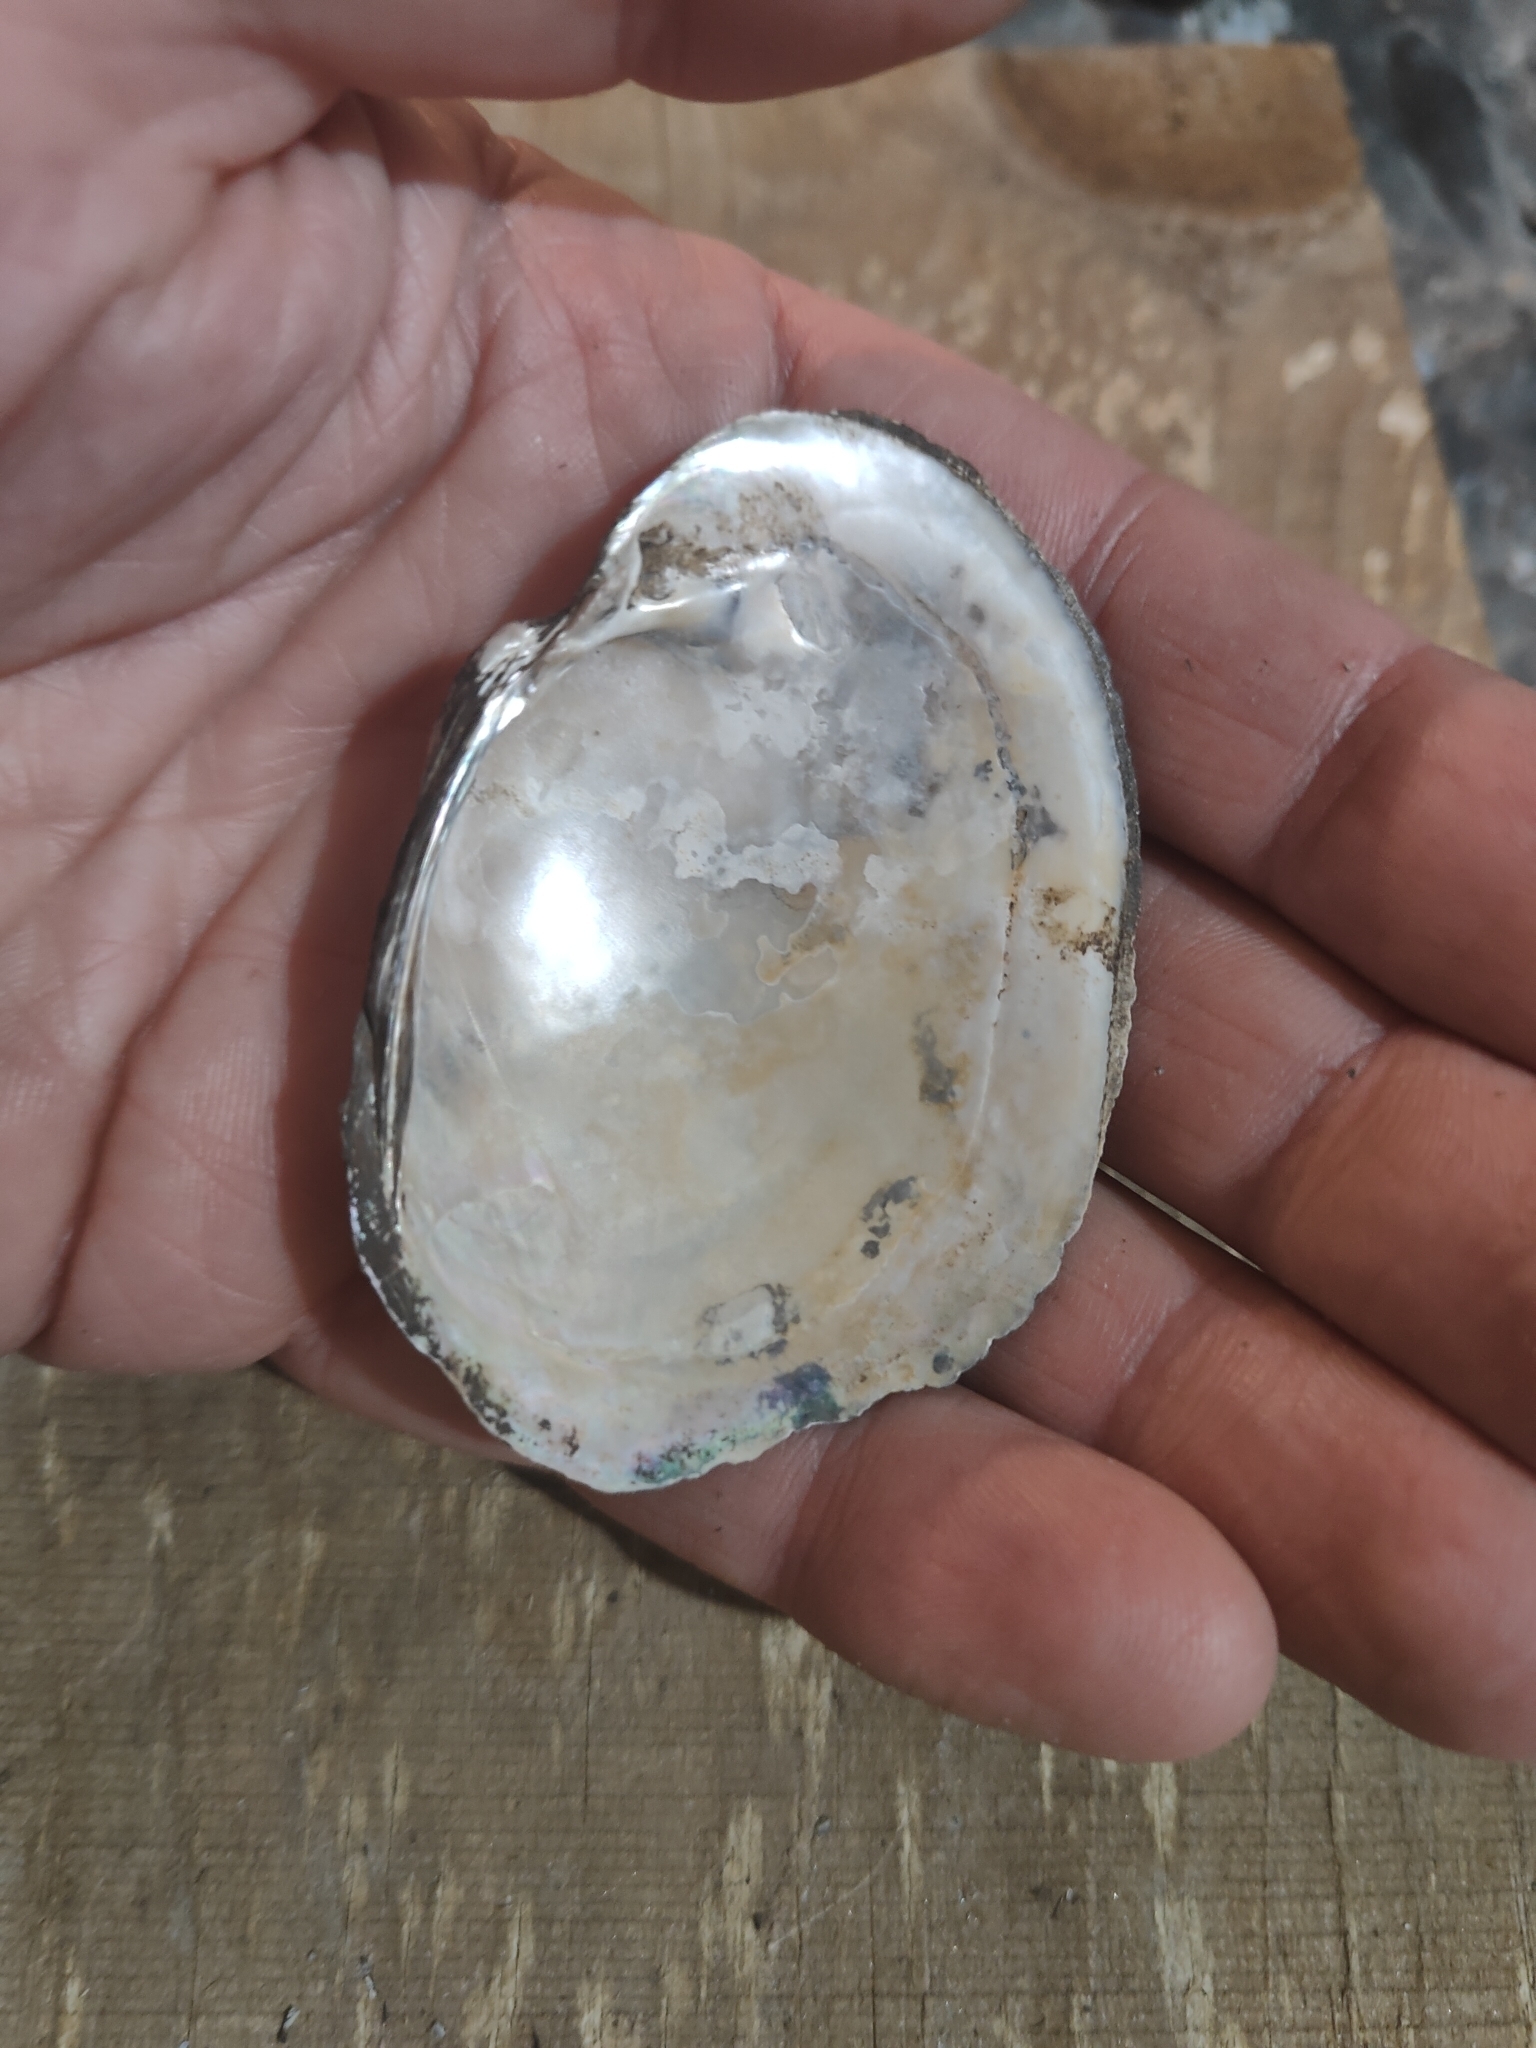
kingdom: Animalia
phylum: Mollusca
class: Bivalvia
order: Unionida
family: Unionidae
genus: Lampsilis
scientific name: Lampsilis cardium
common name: Plain pocketbook
